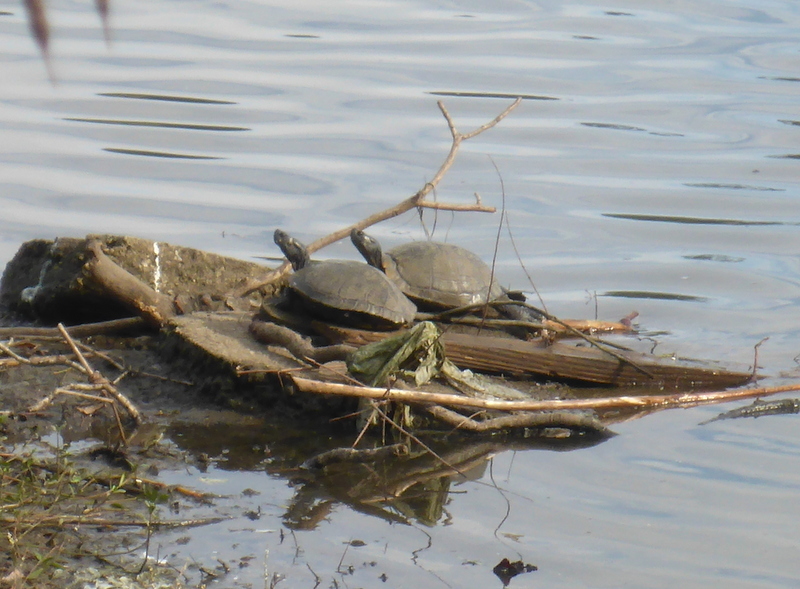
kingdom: Animalia
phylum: Chordata
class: Testudines
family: Emydidae
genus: Trachemys
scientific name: Trachemys scripta
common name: Slider
